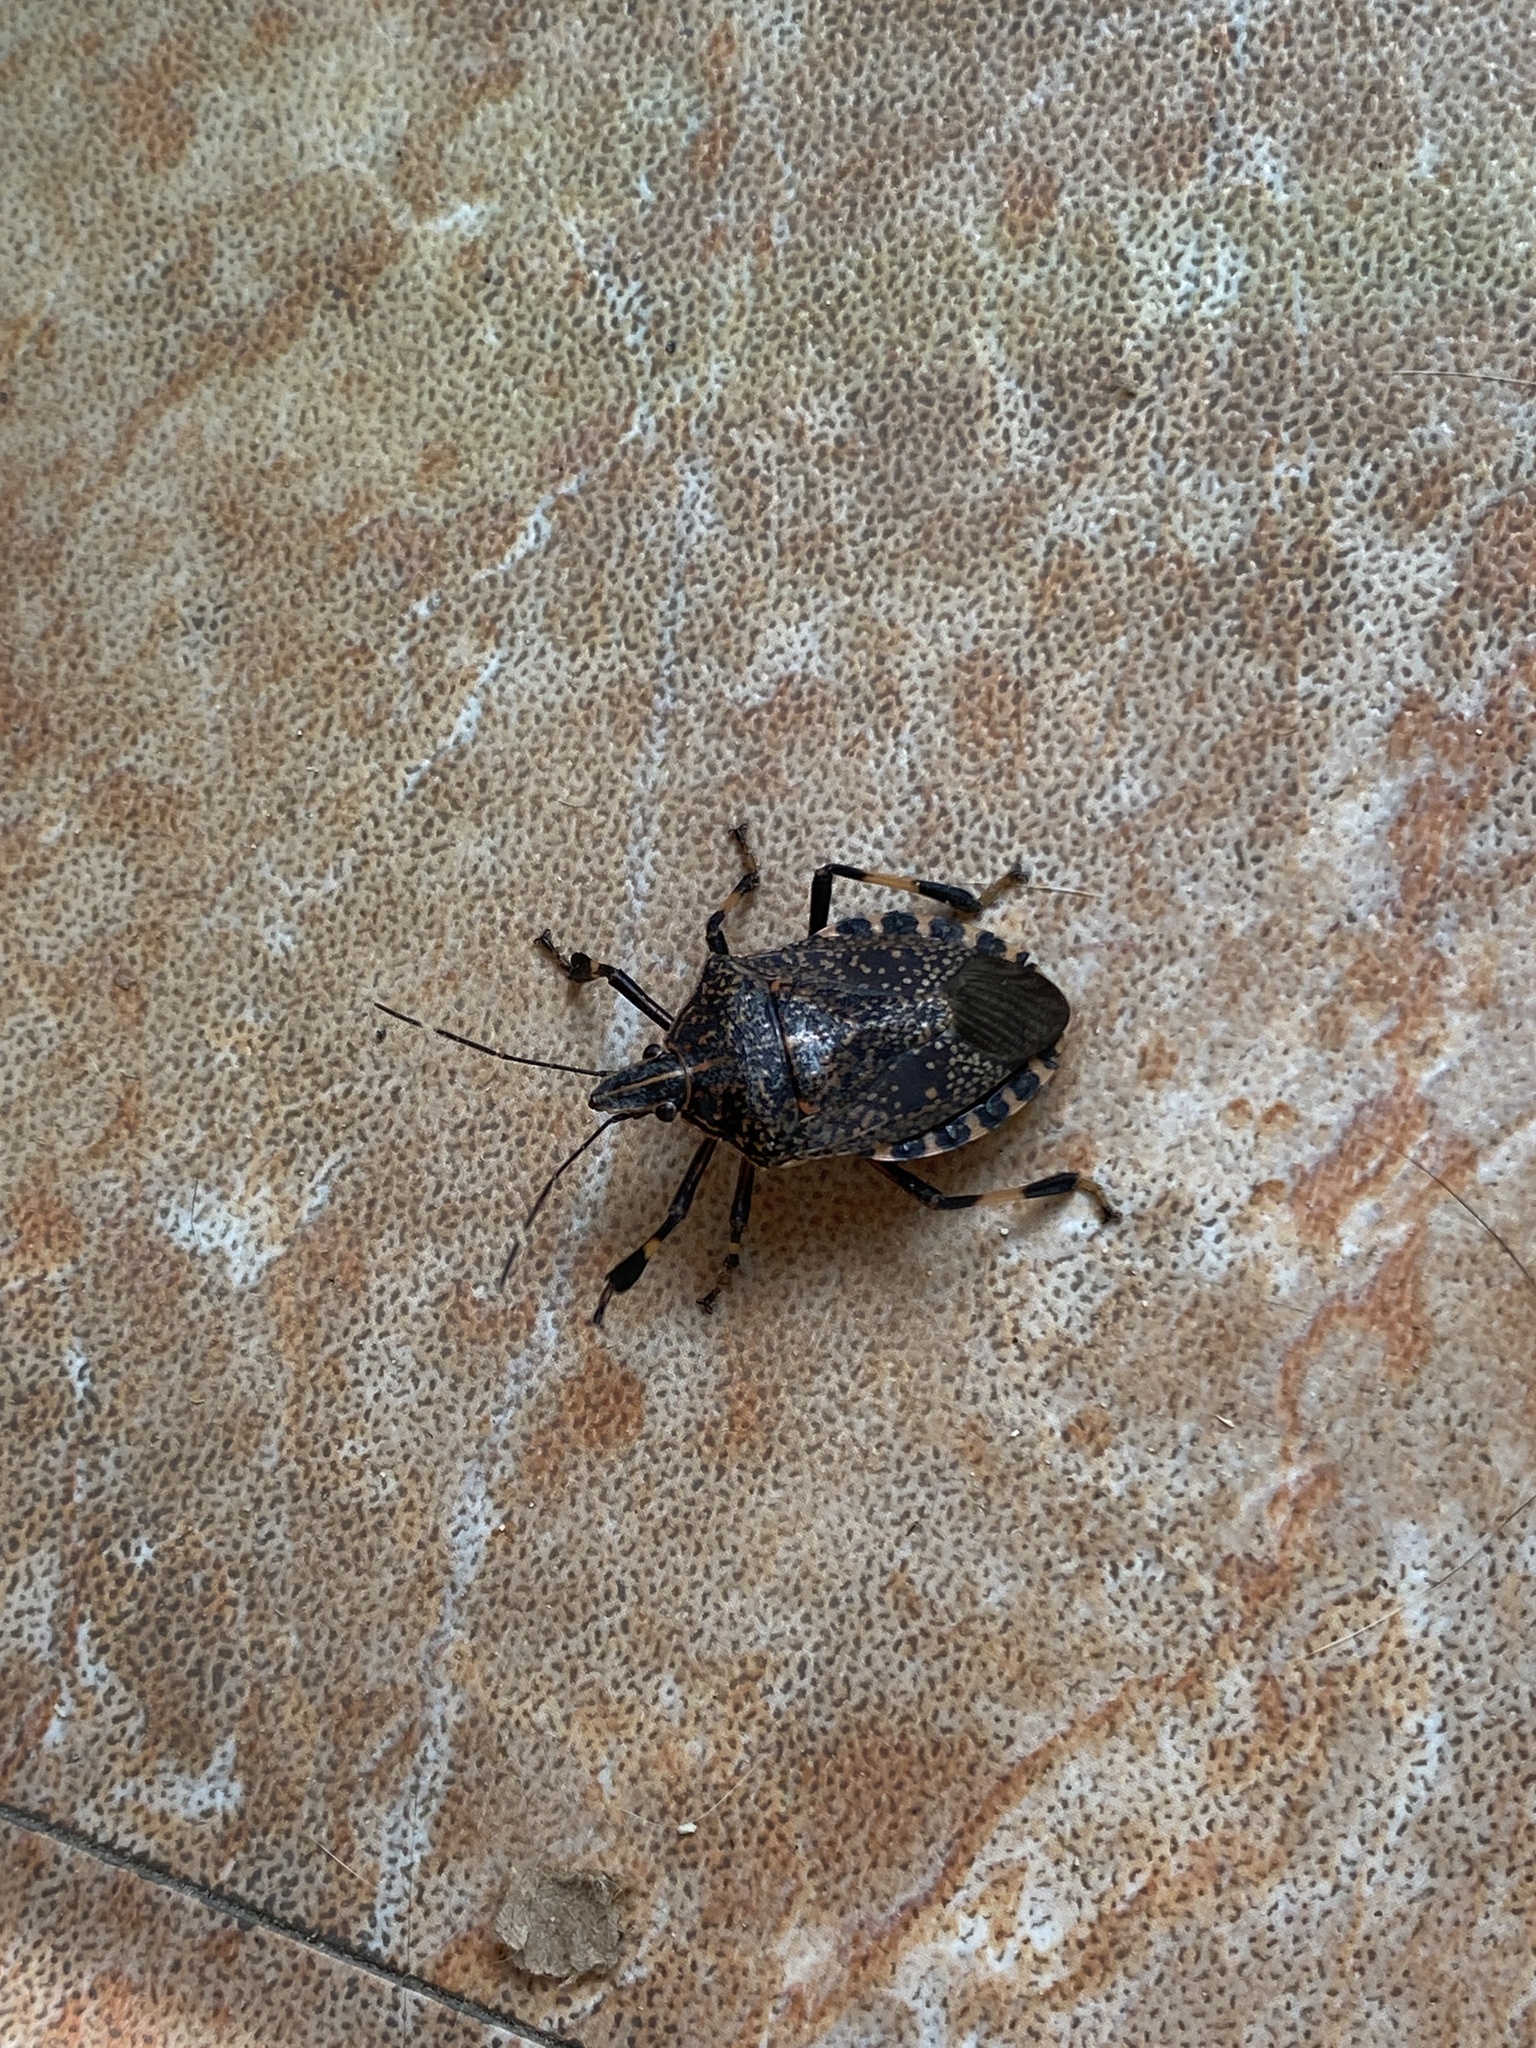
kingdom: Animalia
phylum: Arthropoda
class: Insecta
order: Hemiptera
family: Pentatomidae
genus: Erthesina
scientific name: Erthesina fullo
